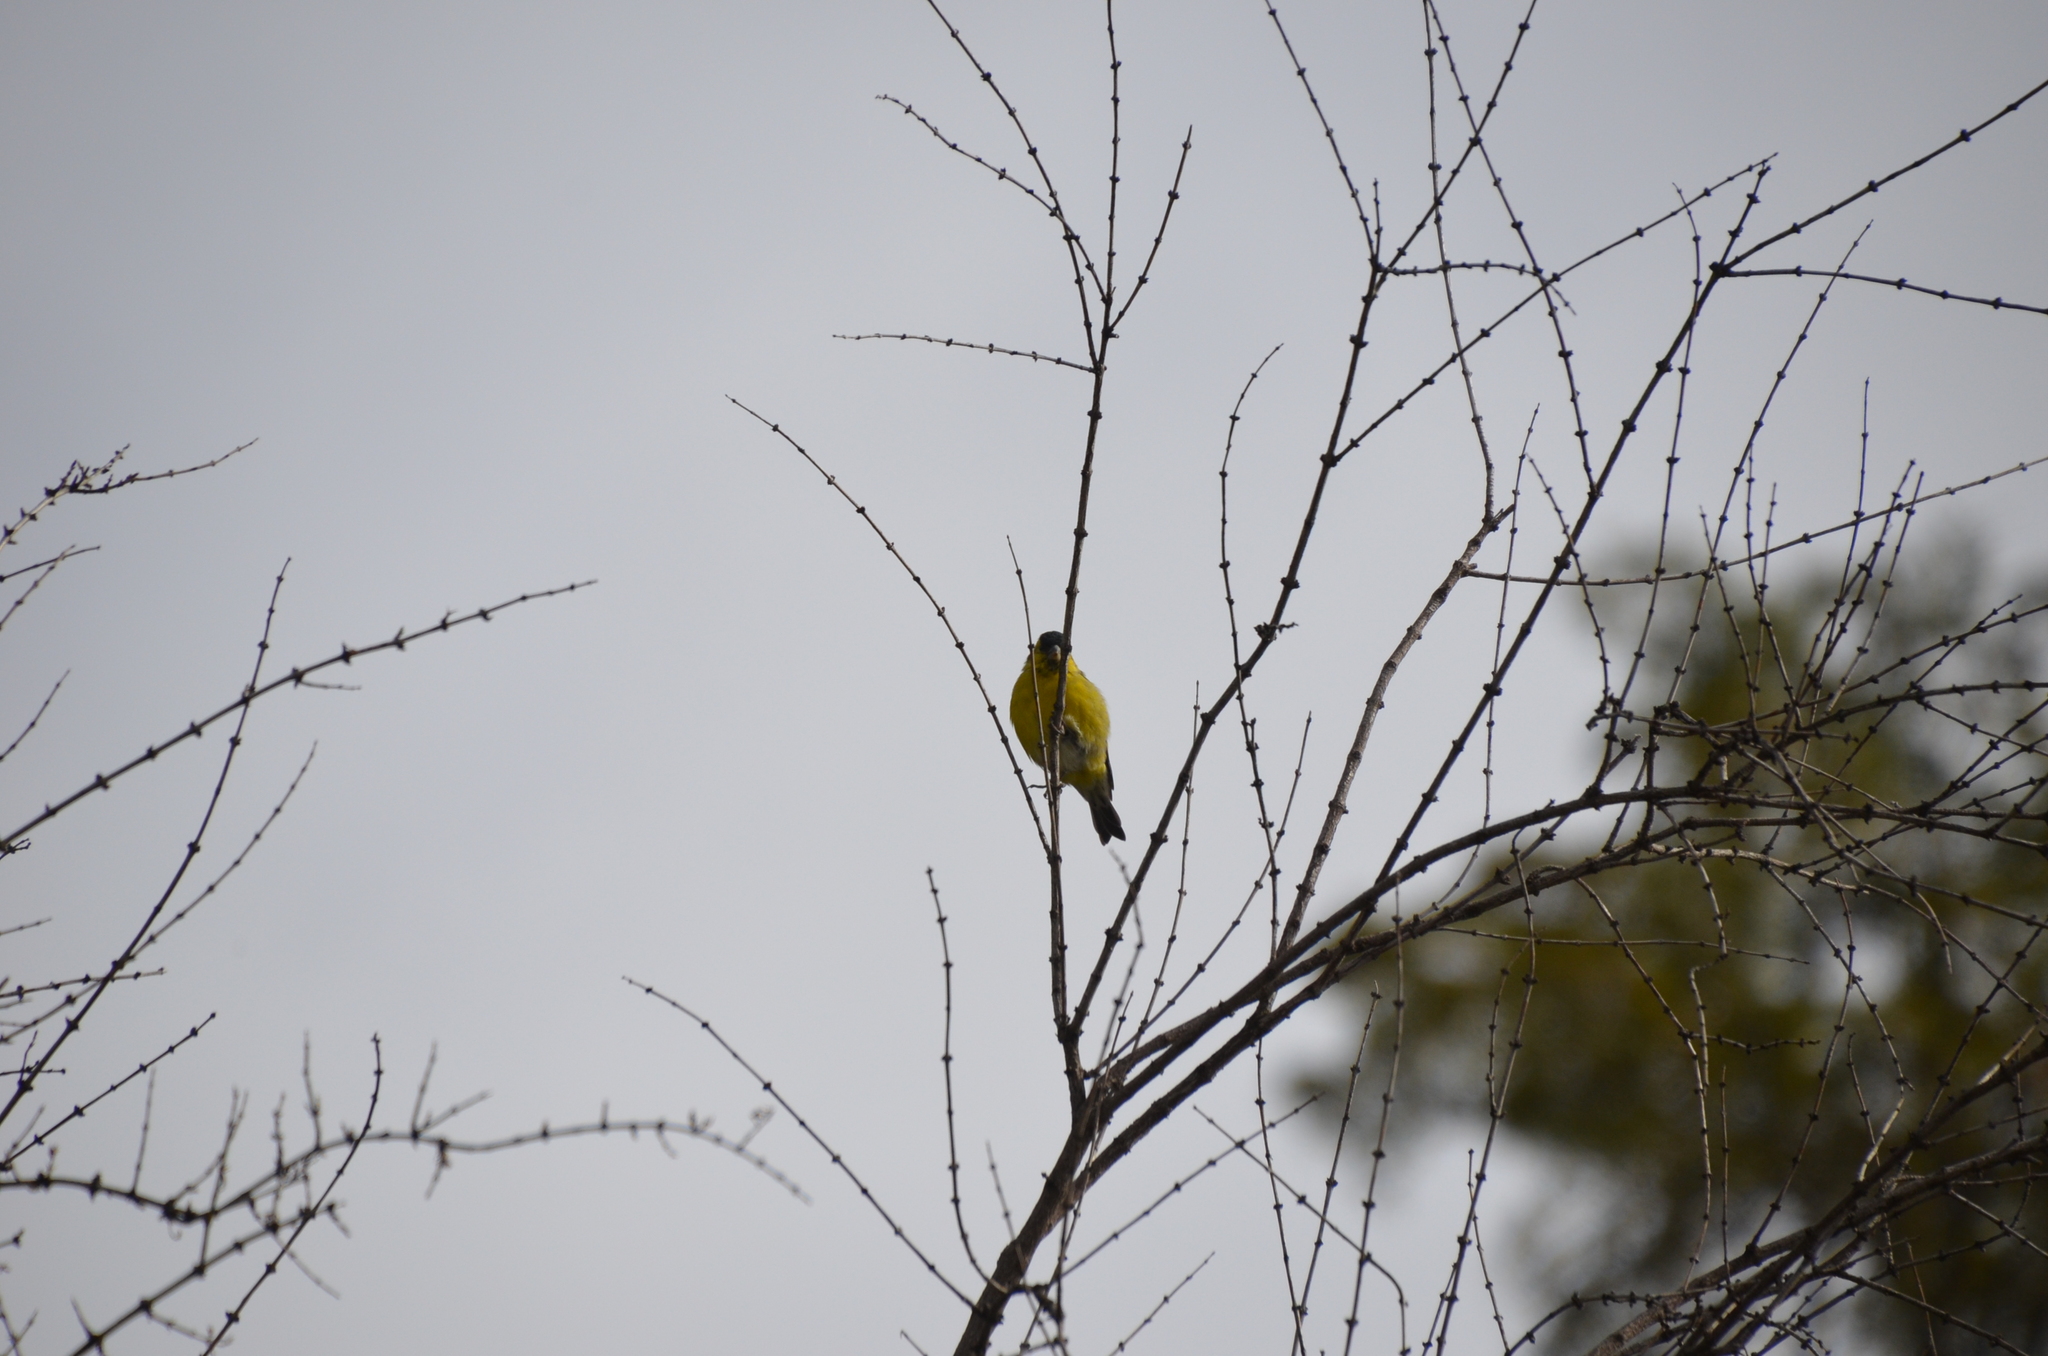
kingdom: Animalia
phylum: Chordata
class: Aves
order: Passeriformes
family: Fringillidae
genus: Spinus
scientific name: Spinus barbatus
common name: Black-chinned siskin
